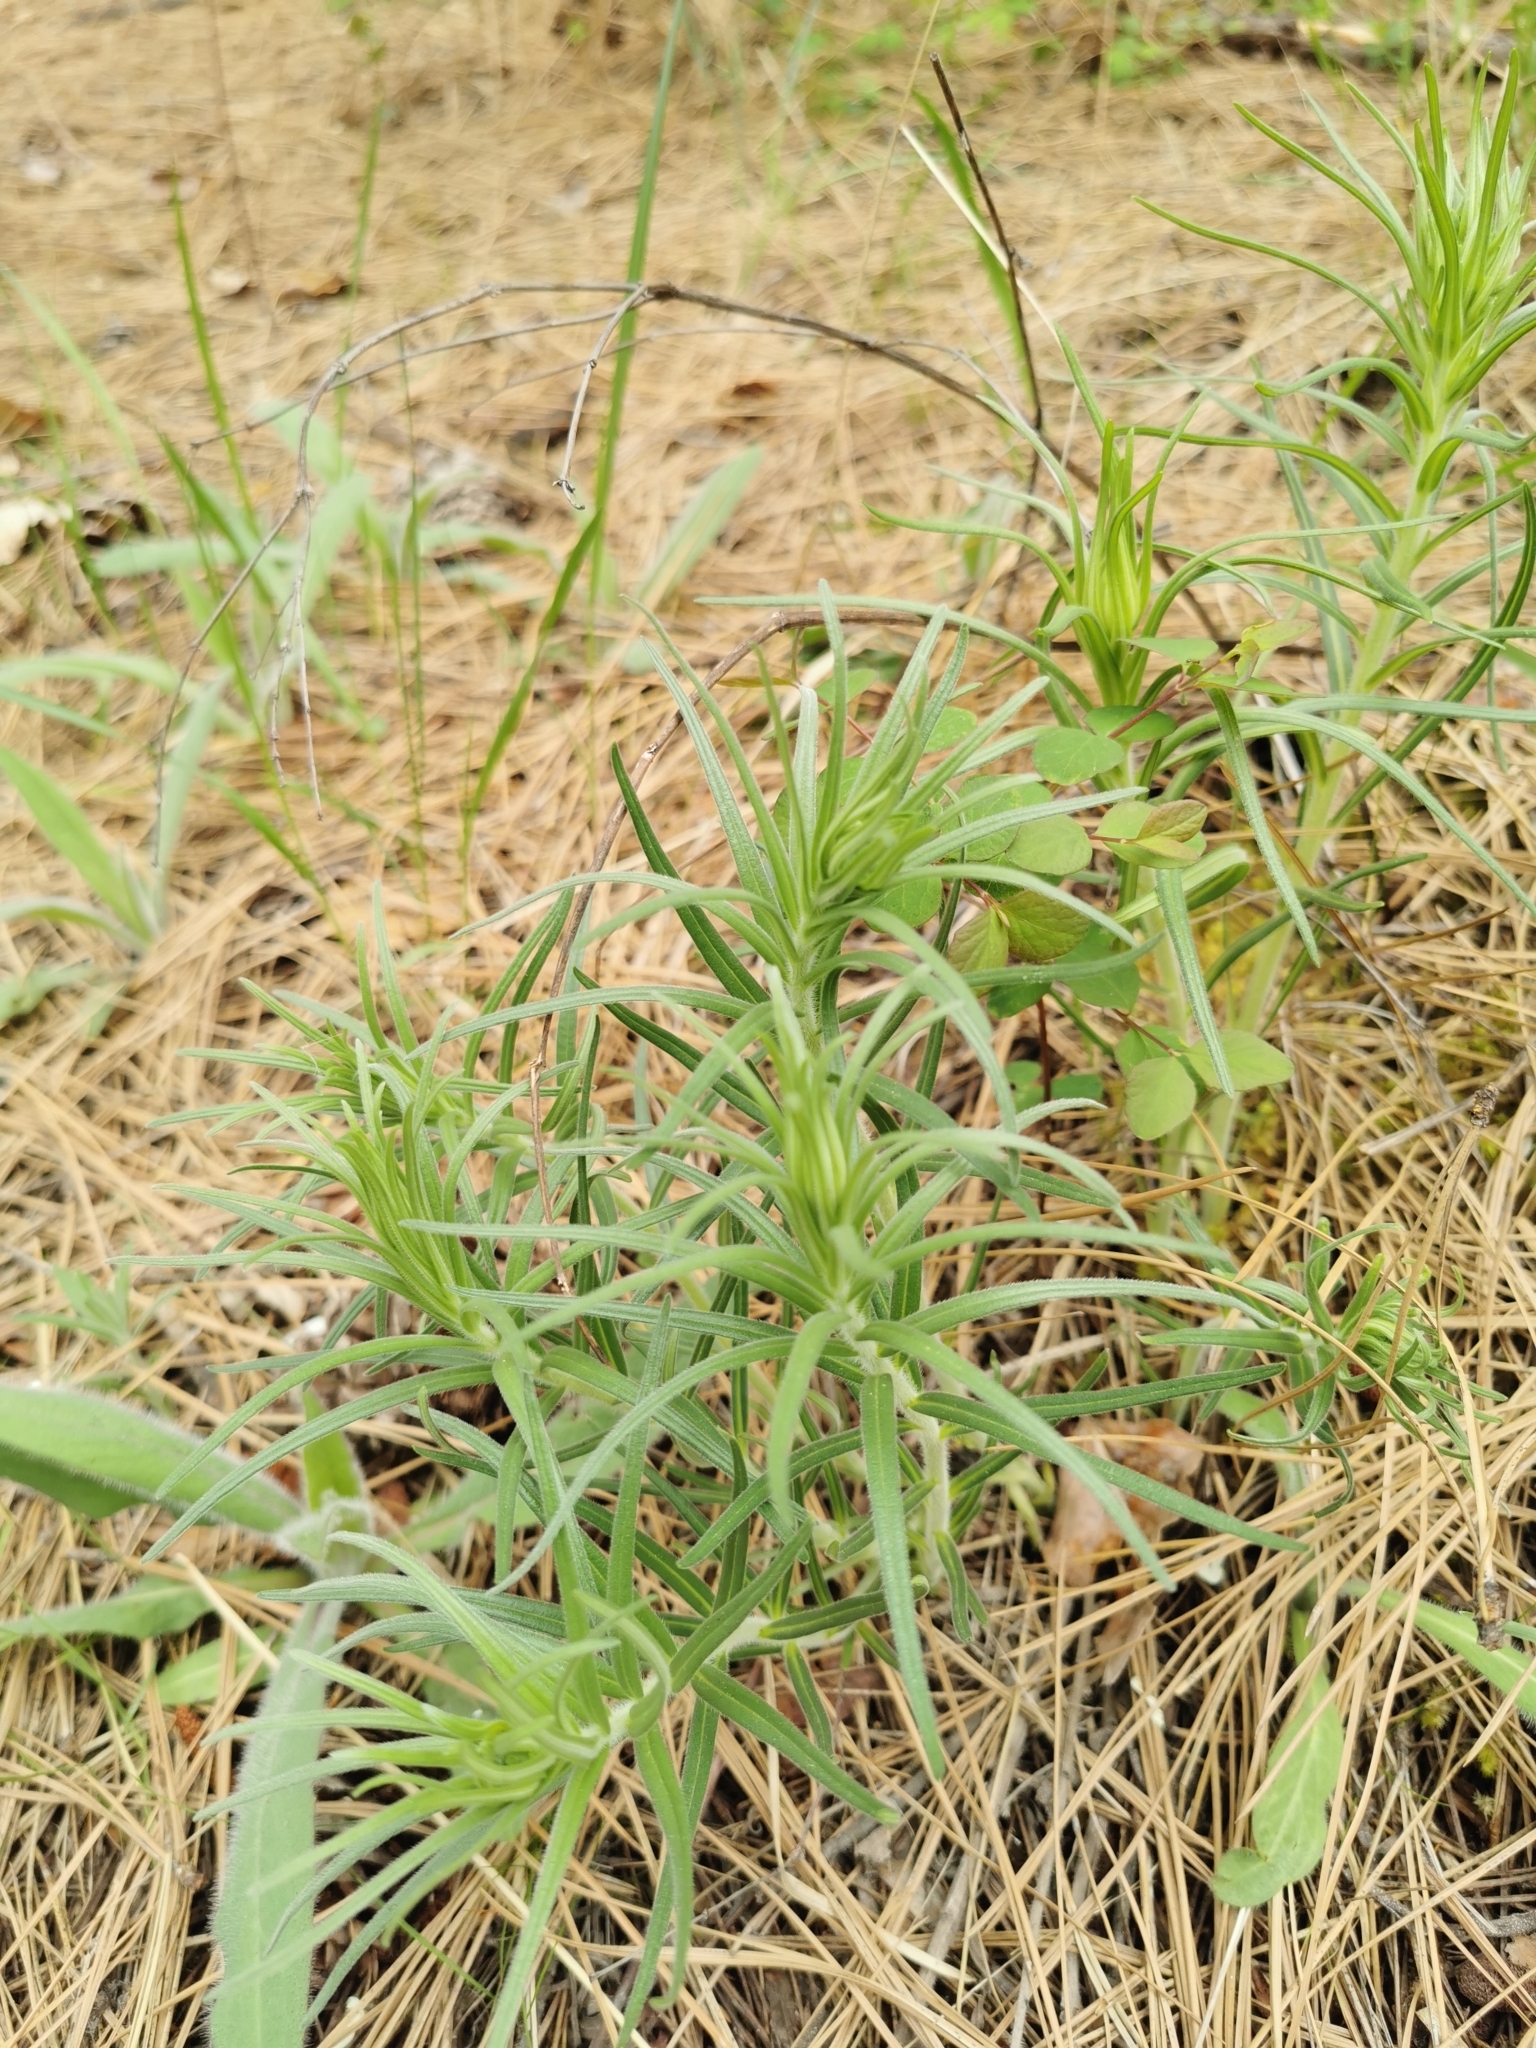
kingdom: Plantae
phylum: Tracheophyta
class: Magnoliopsida
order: Boraginales
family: Boraginaceae
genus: Lithospermum
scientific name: Lithospermum ruderale
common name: Western gromwell
